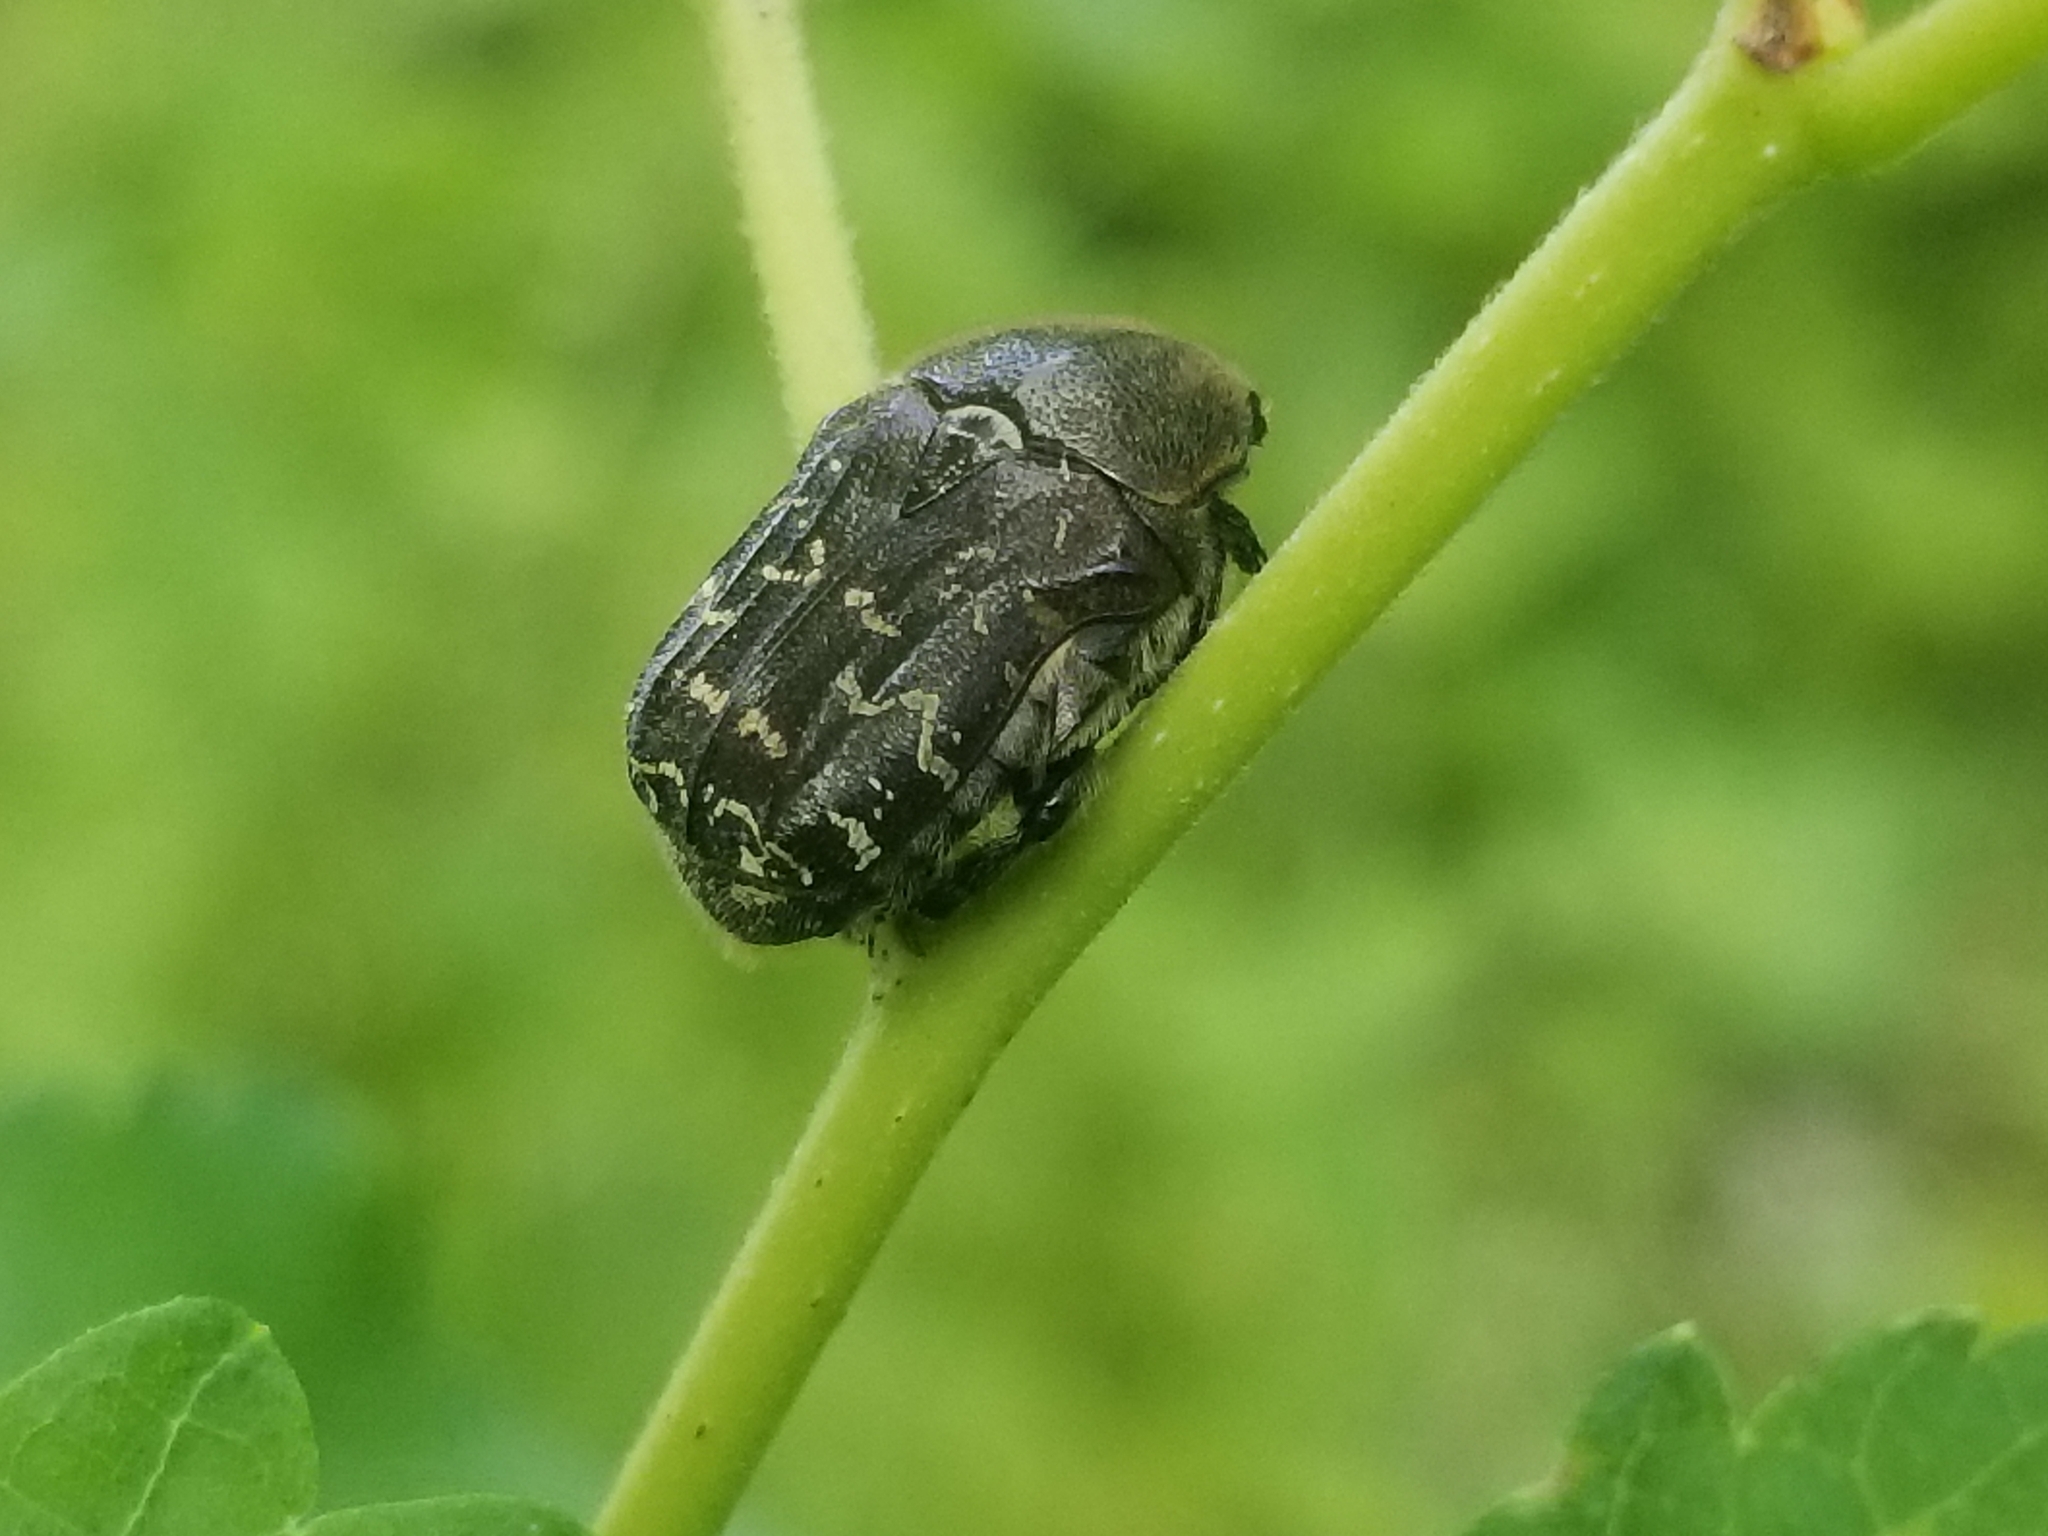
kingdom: Animalia
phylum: Arthropoda
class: Insecta
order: Coleoptera
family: Scarabaeidae
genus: Euphoria
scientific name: Euphoria sepulcralis
